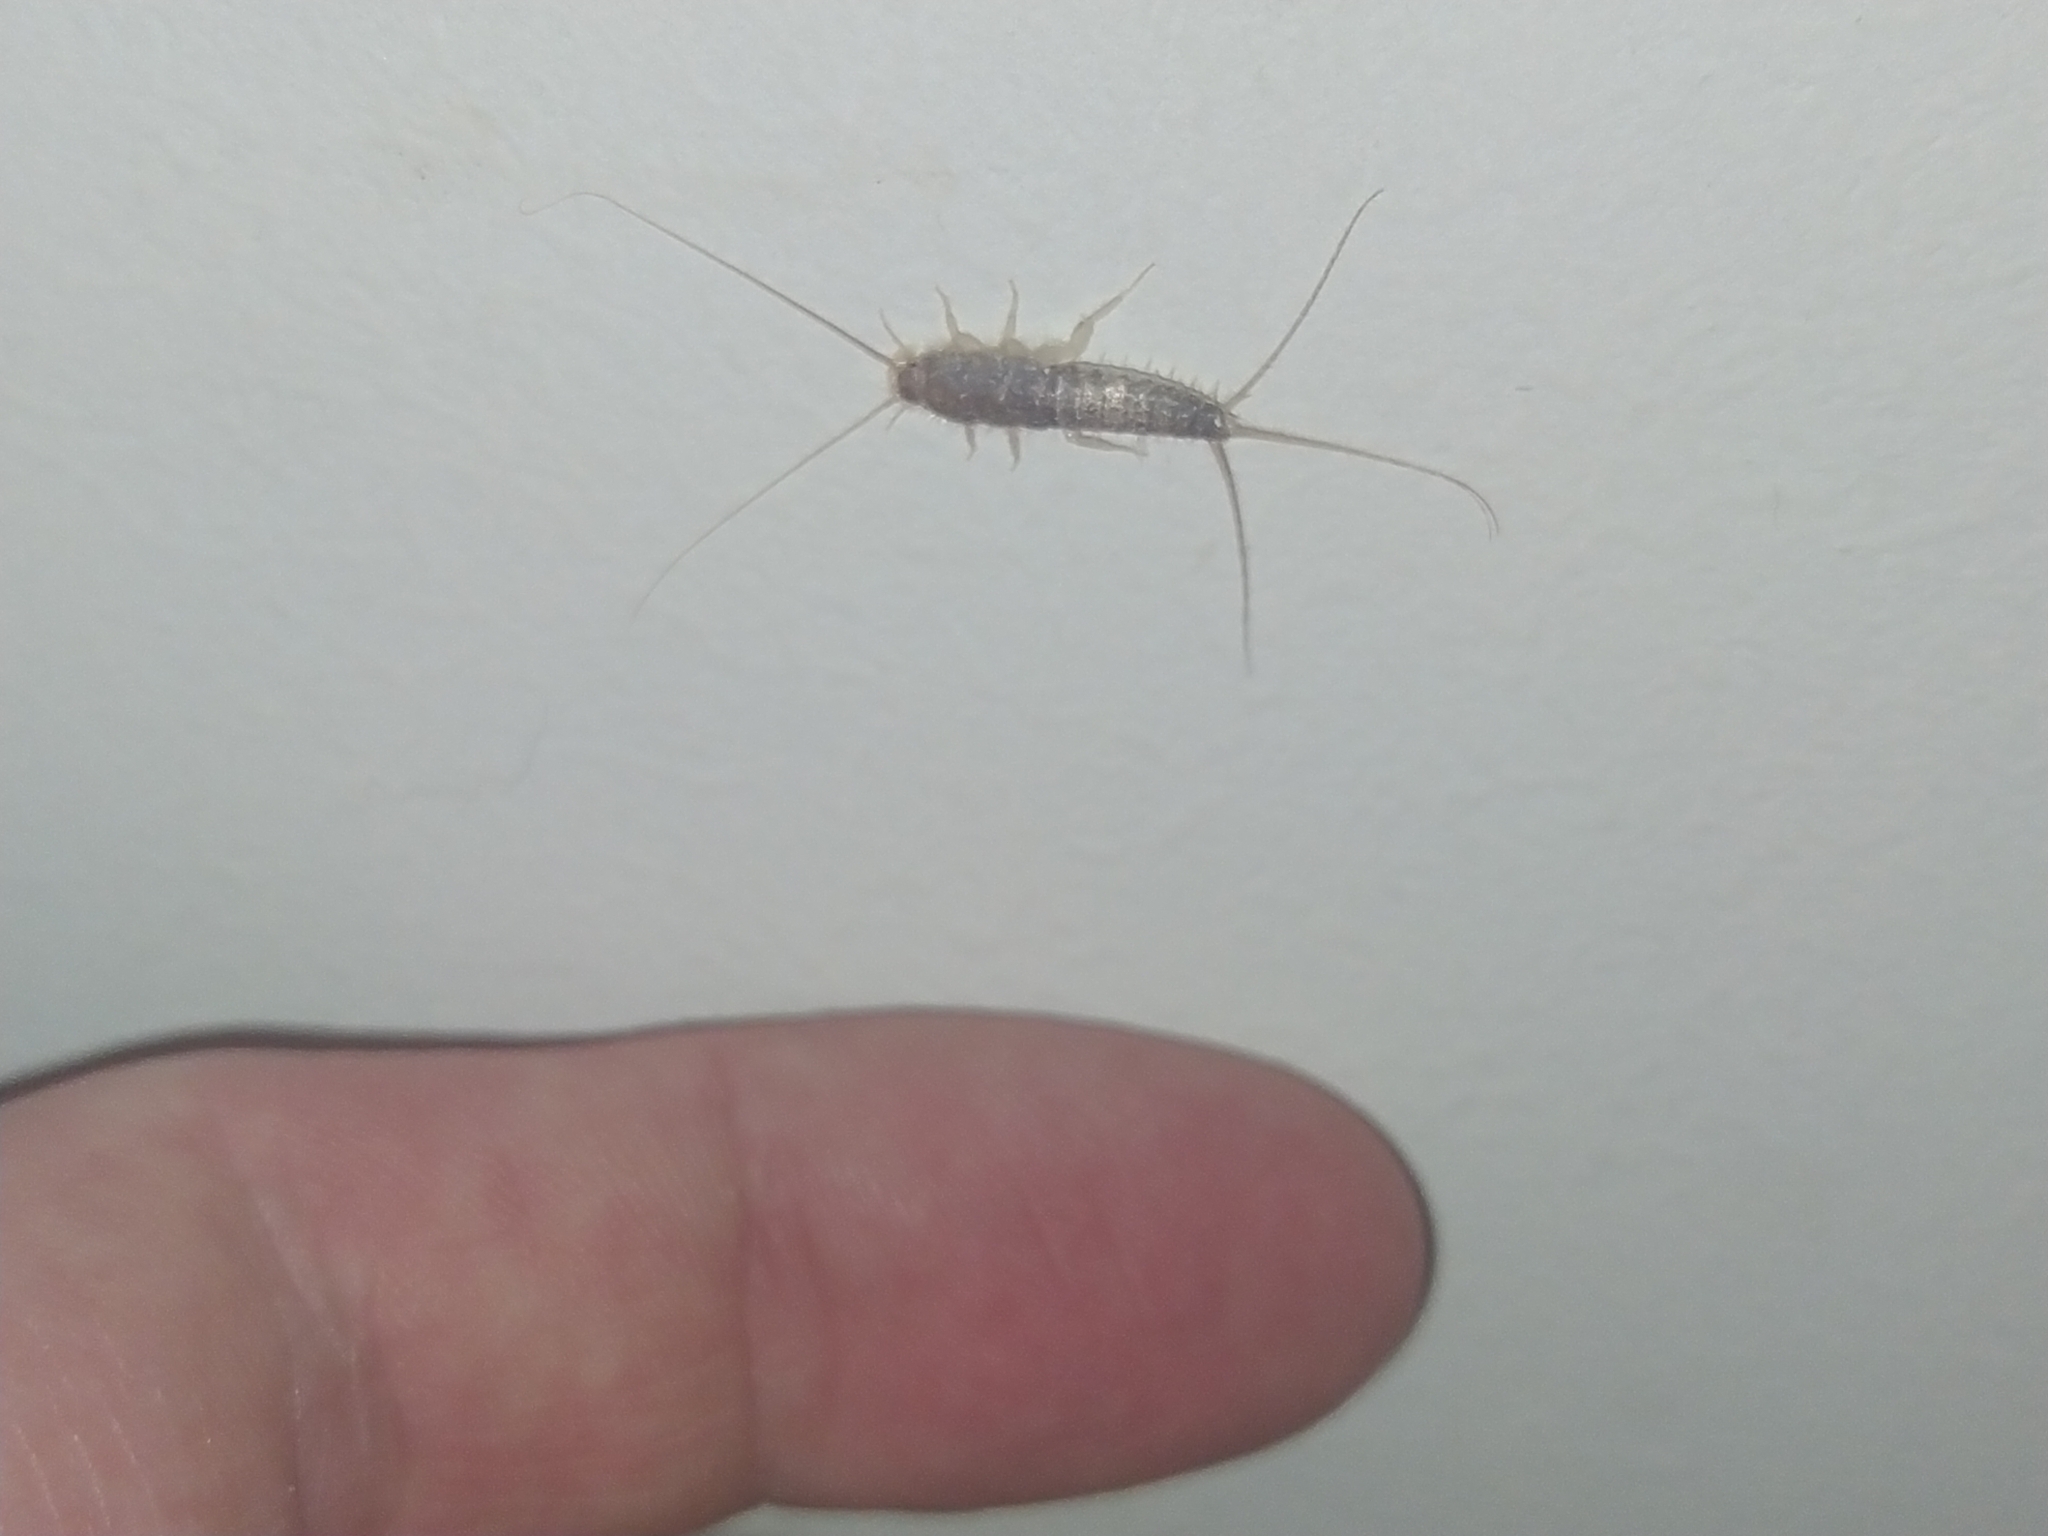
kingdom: Animalia
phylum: Arthropoda
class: Insecta
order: Zygentoma
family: Lepismatidae
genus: Ctenolepisma
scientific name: Ctenolepisma longicaudatum
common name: Silverfish
